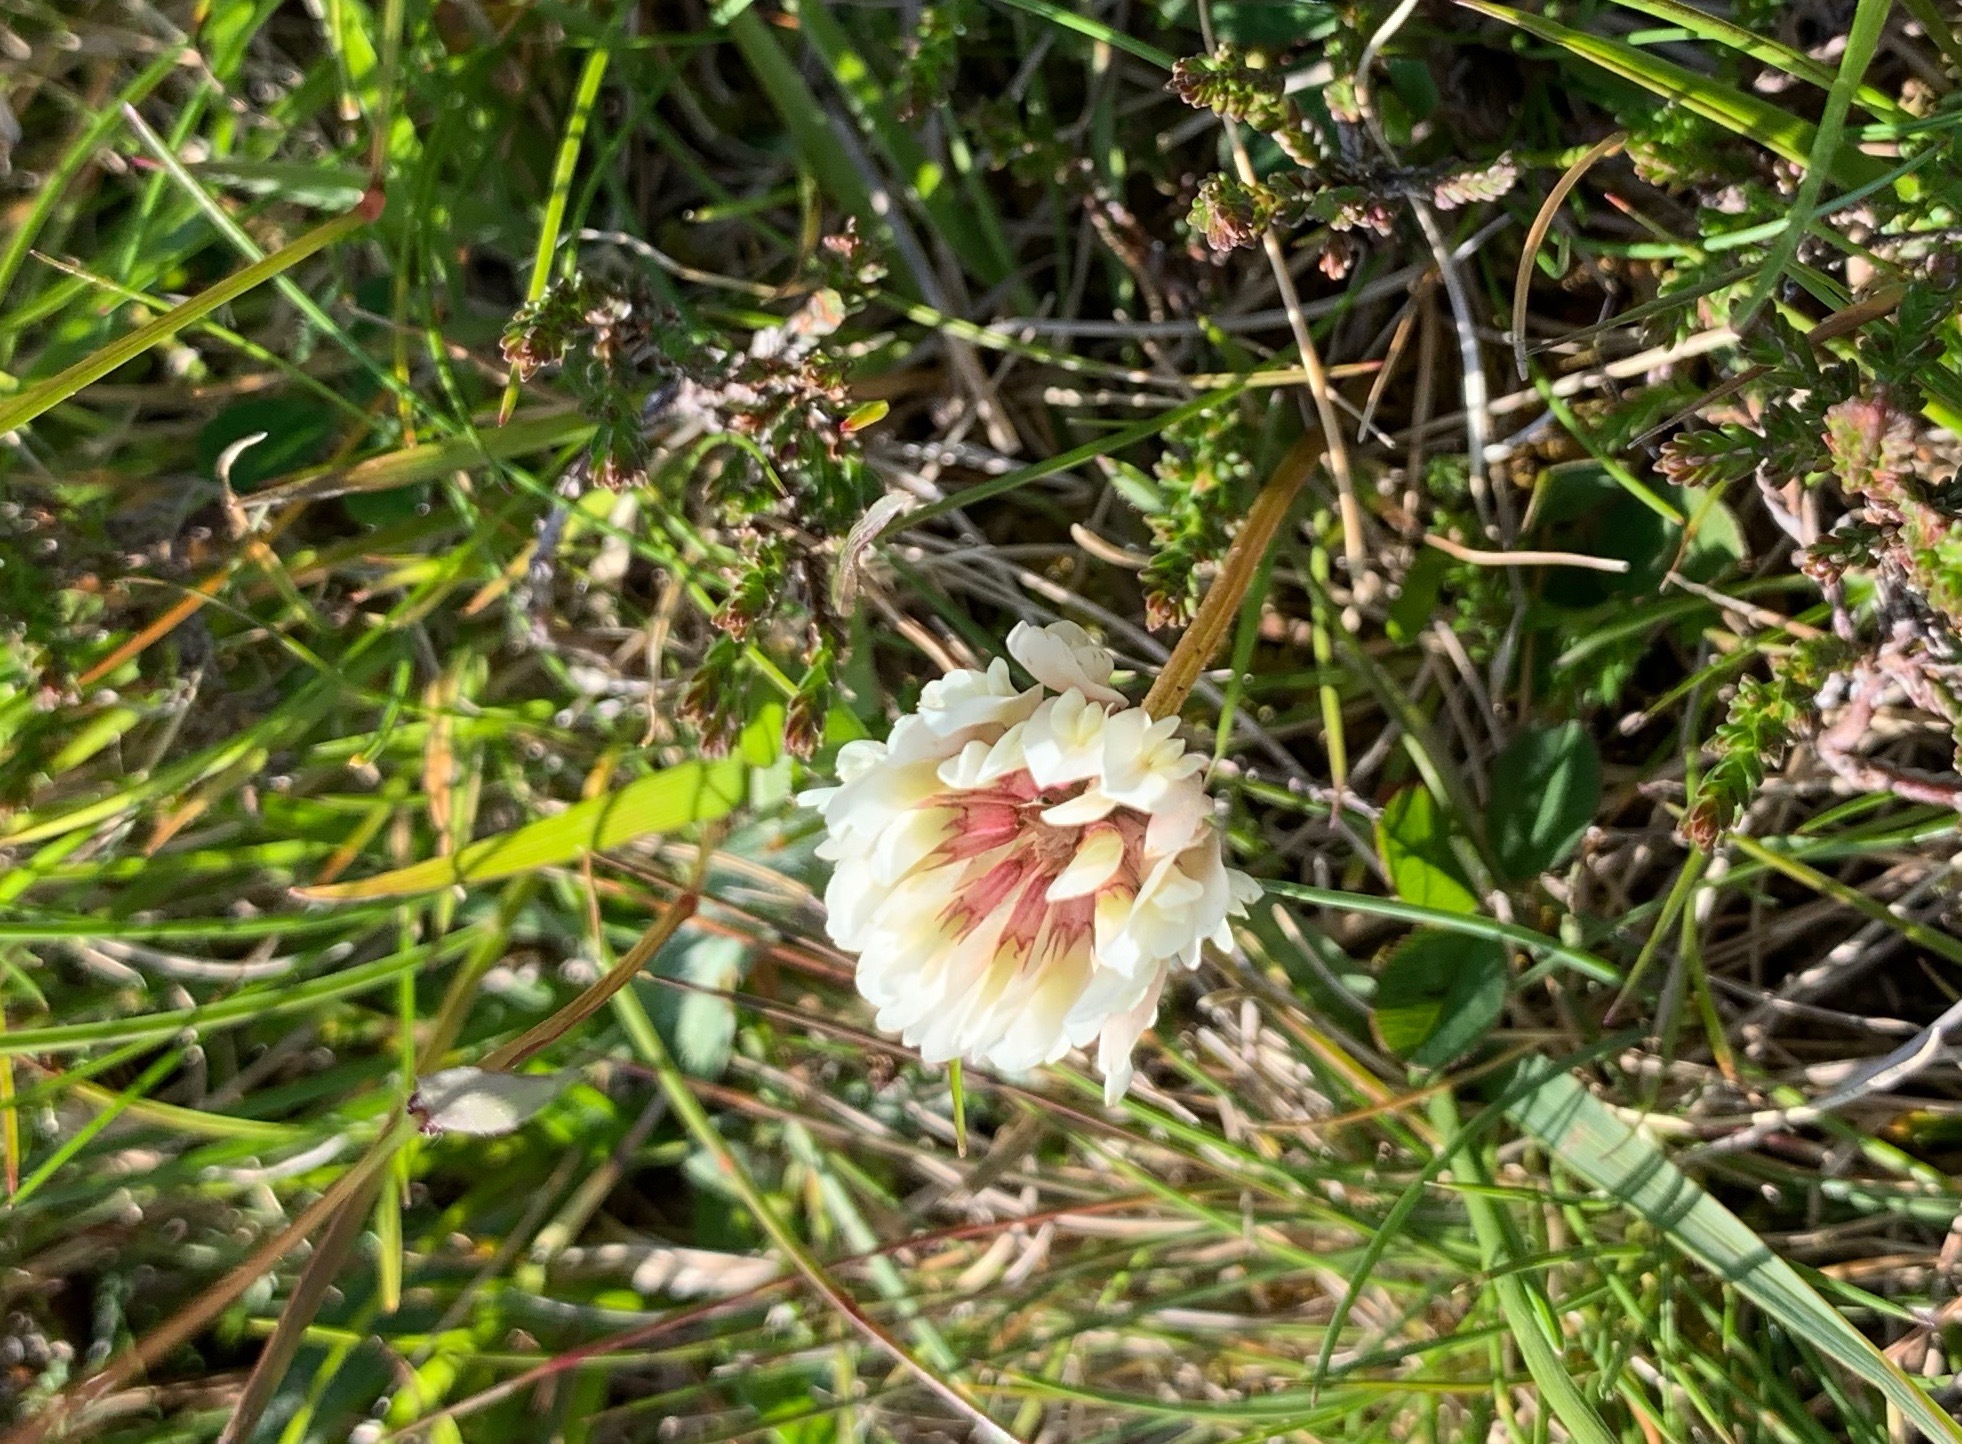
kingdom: Plantae
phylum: Tracheophyta
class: Magnoliopsida
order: Fabales
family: Fabaceae
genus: Trifolium
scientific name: Trifolium repens
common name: White clover
